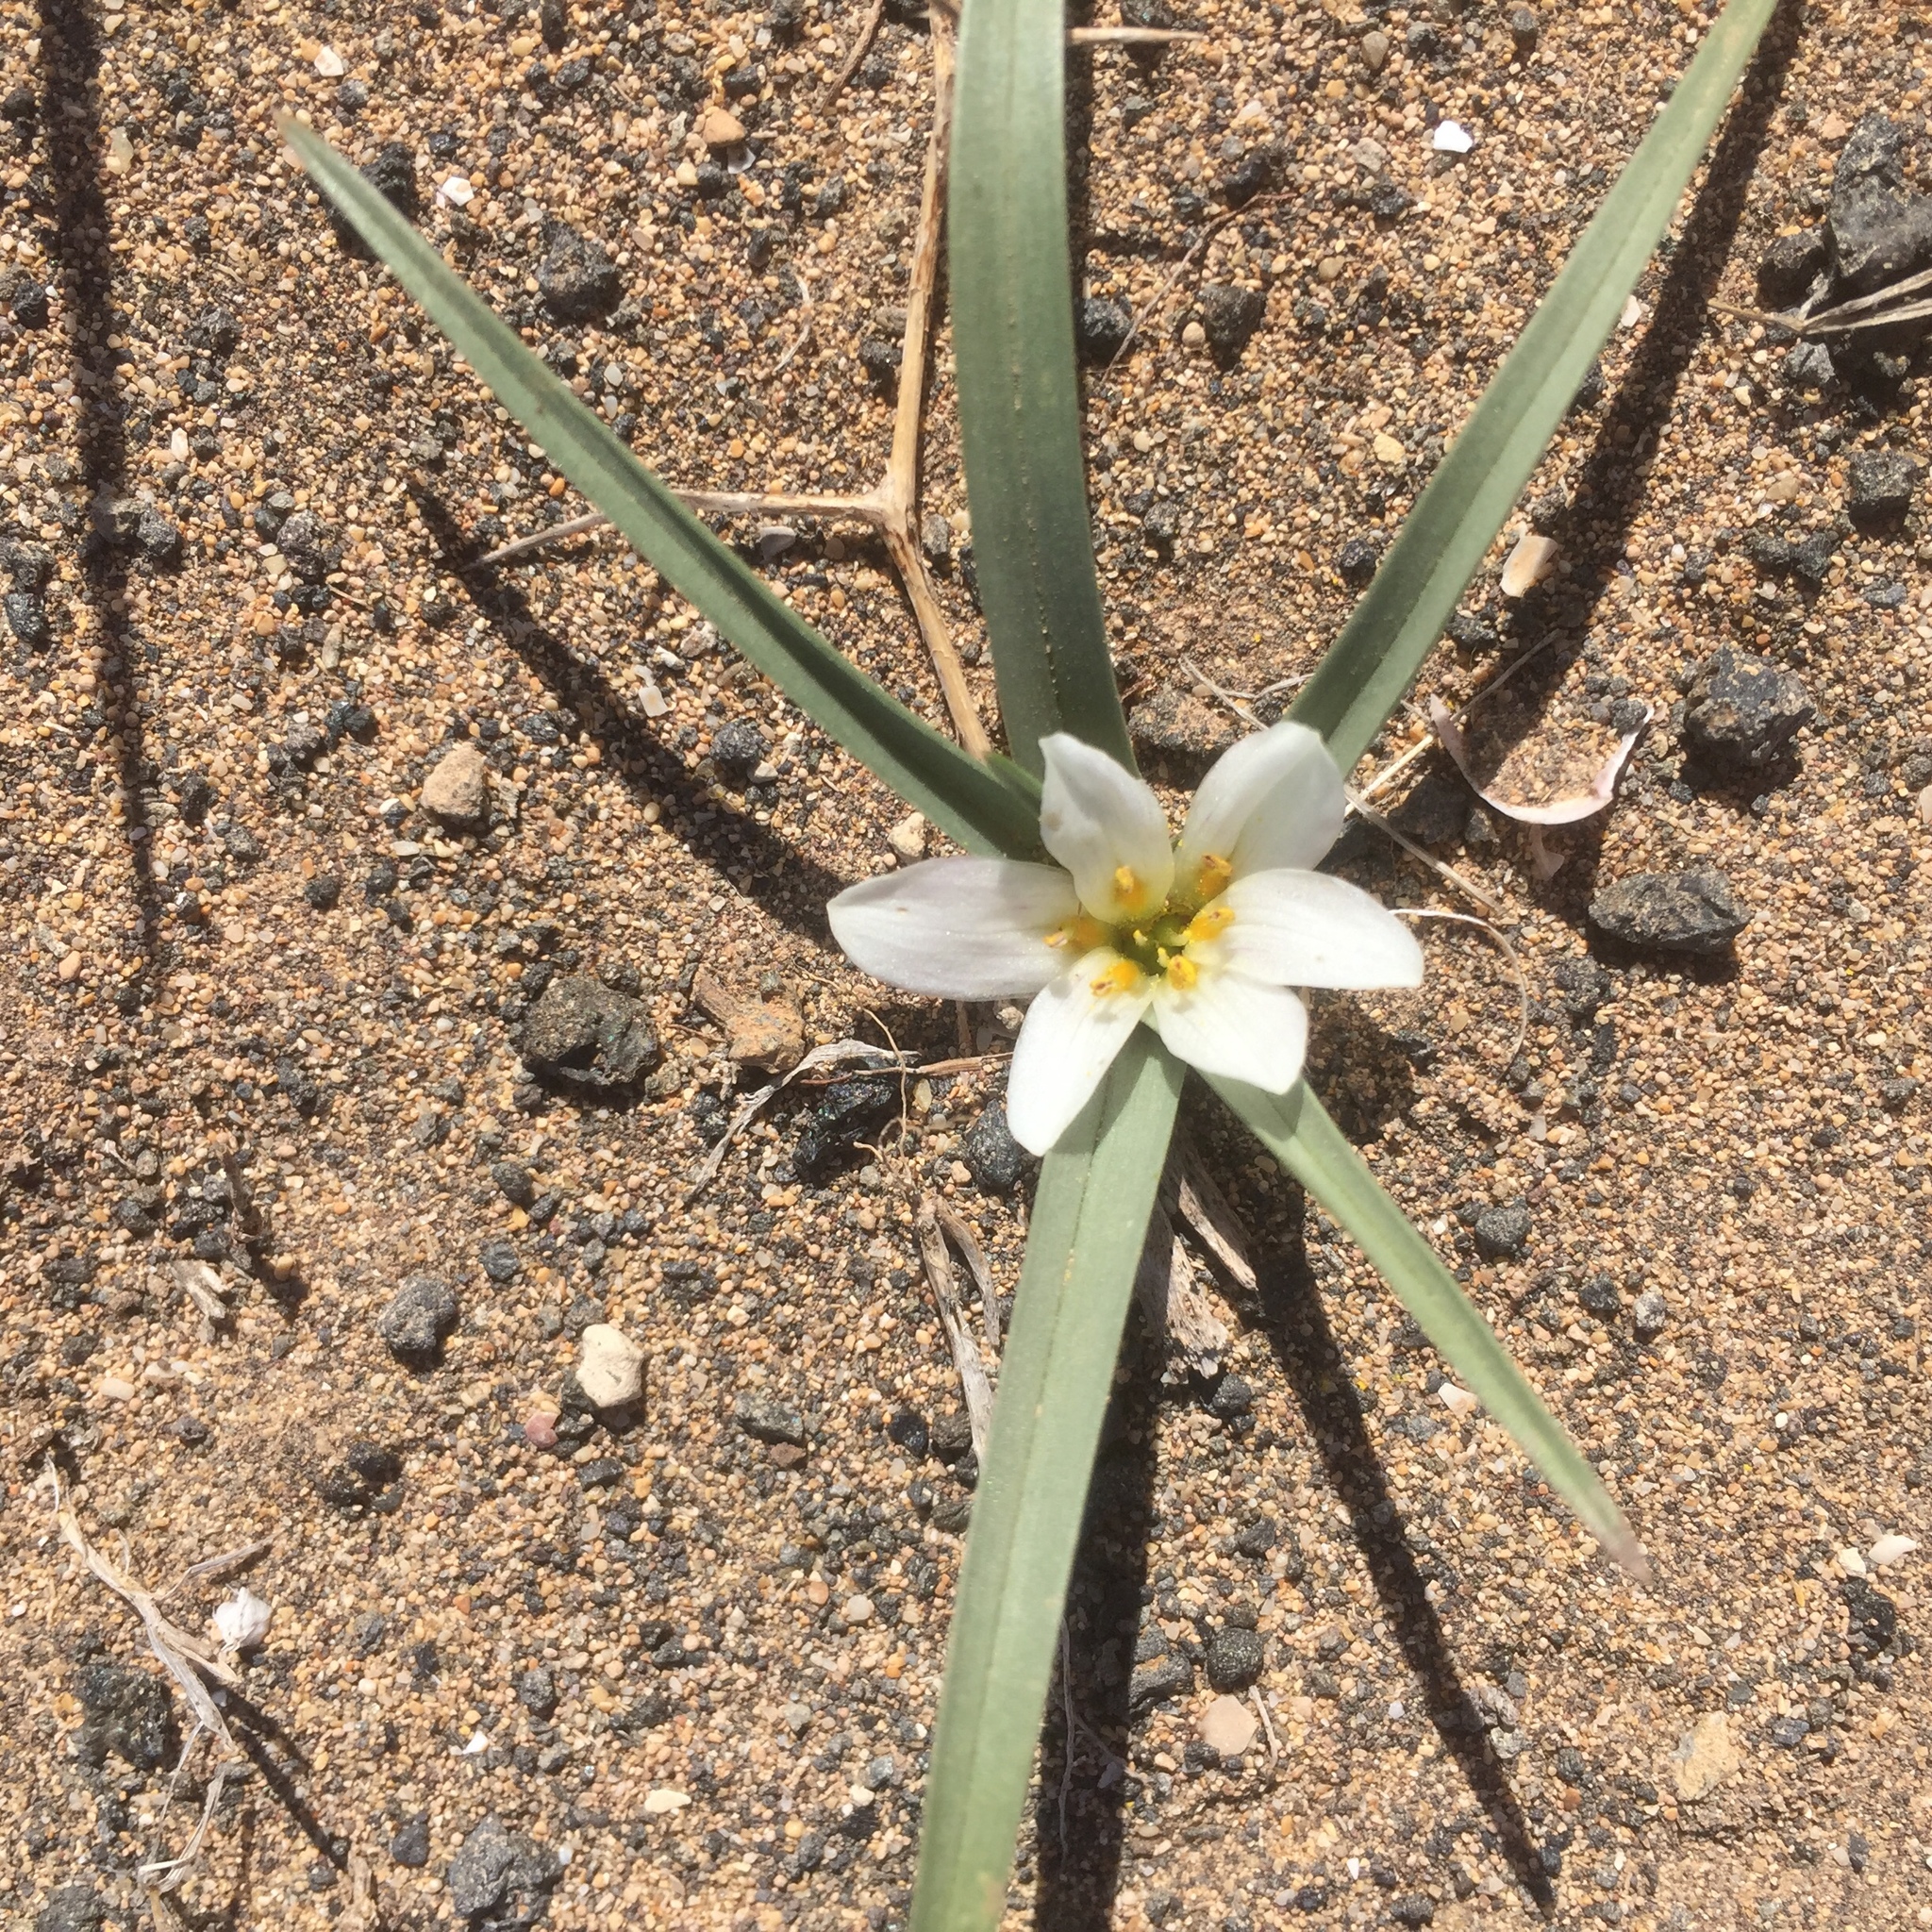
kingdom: Plantae
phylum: Tracheophyta
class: Liliopsida
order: Liliales
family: Colchicaceae
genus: Colchicum
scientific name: Colchicum psammophilum
